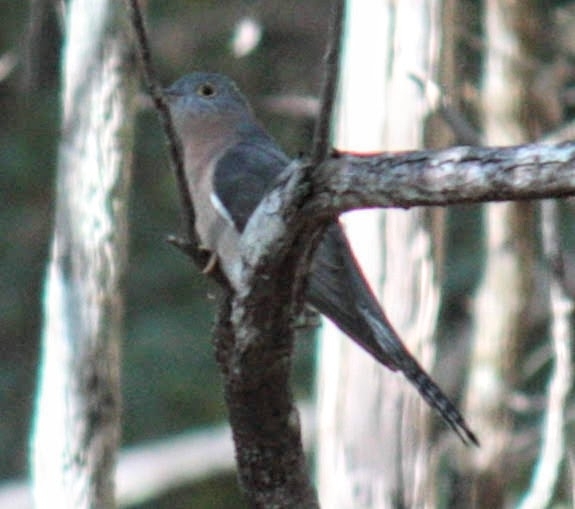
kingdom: Animalia
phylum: Chordata
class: Aves
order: Cuculiformes
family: Cuculidae
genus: Cacomantis
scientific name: Cacomantis flabelliformis
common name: Fan-tailed cuckoo
